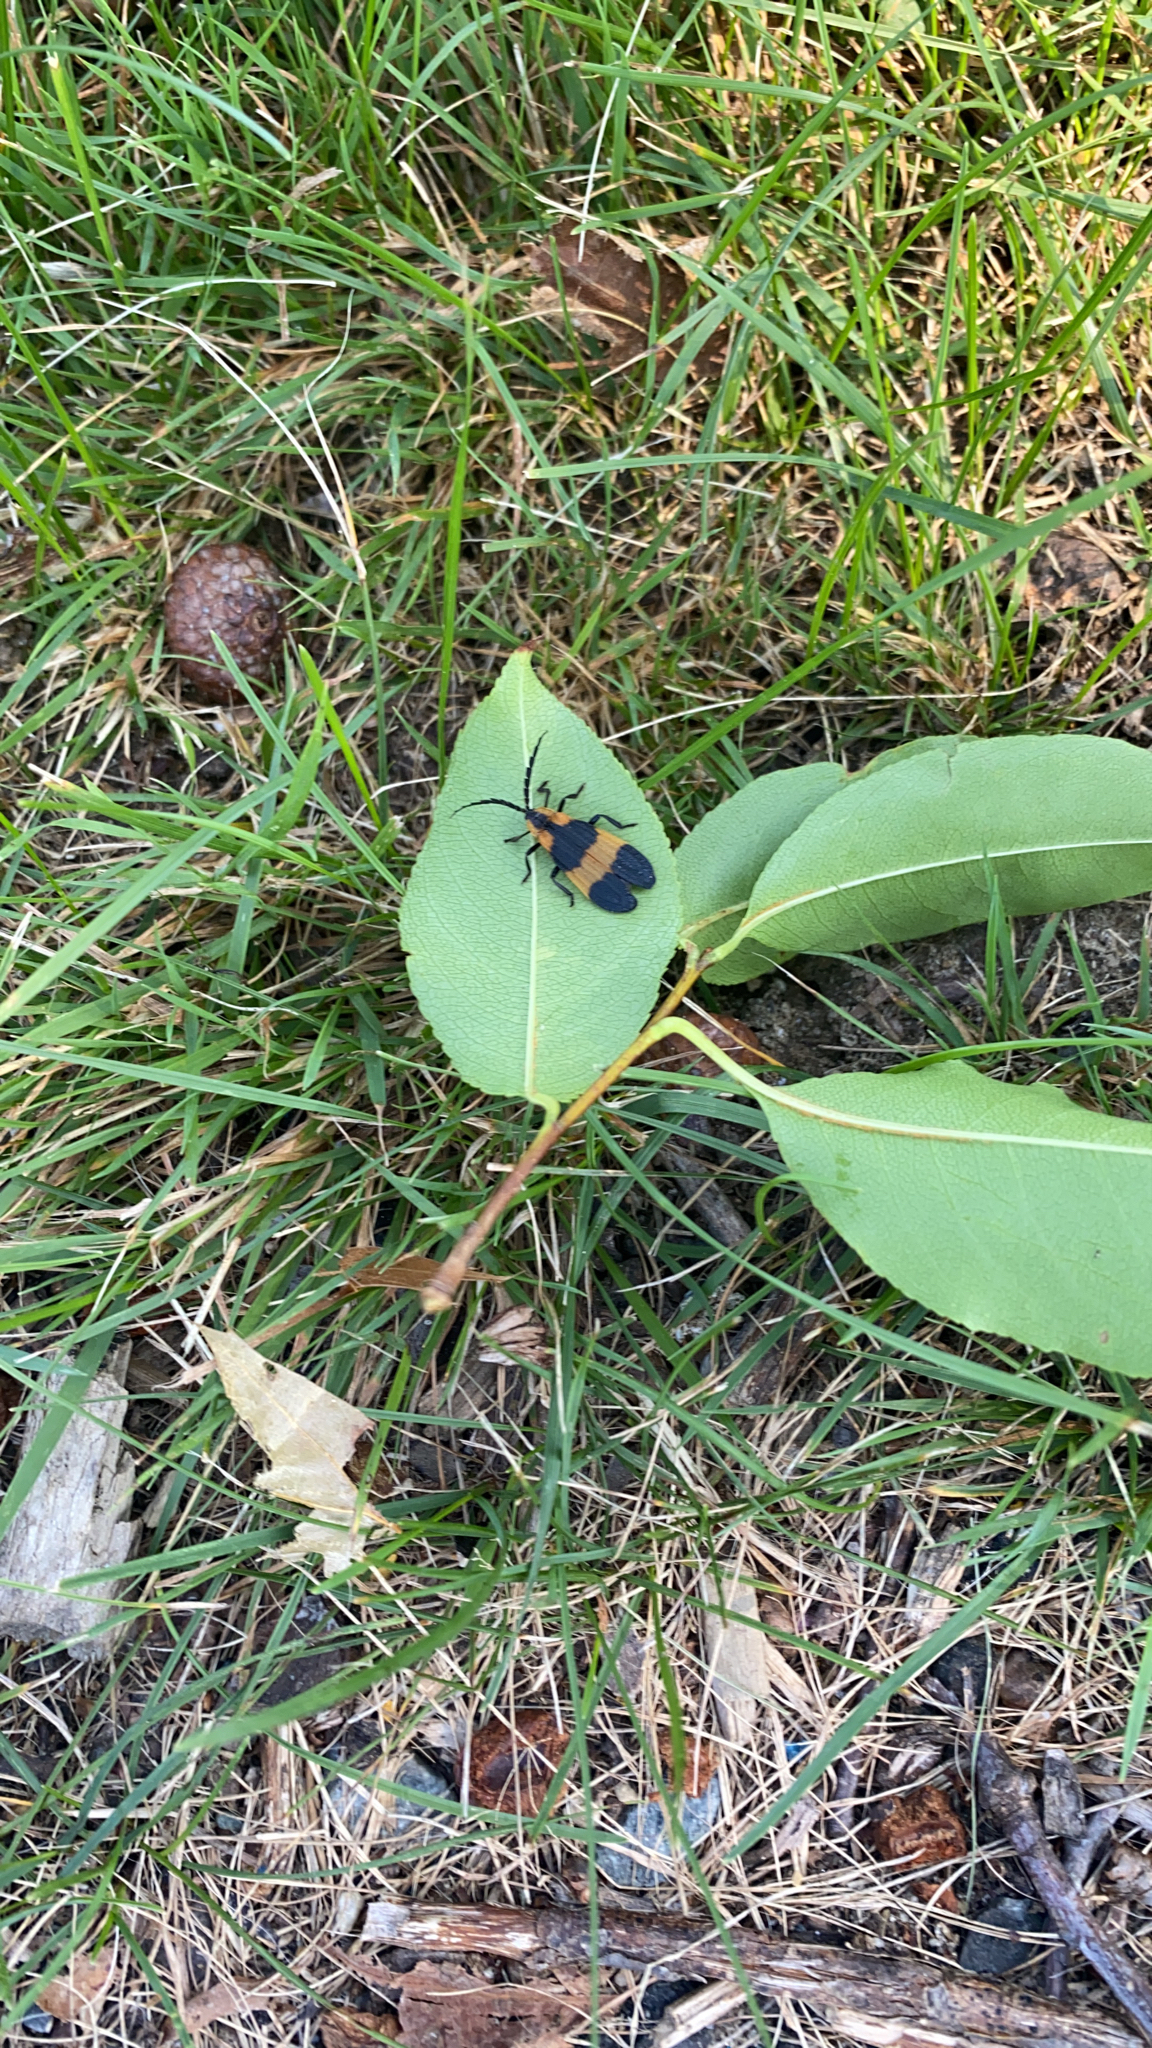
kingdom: Animalia
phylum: Arthropoda
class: Insecta
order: Coleoptera
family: Lycidae
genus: Calopteron
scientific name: Calopteron reticulatum
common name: Banded net-winged beetle
